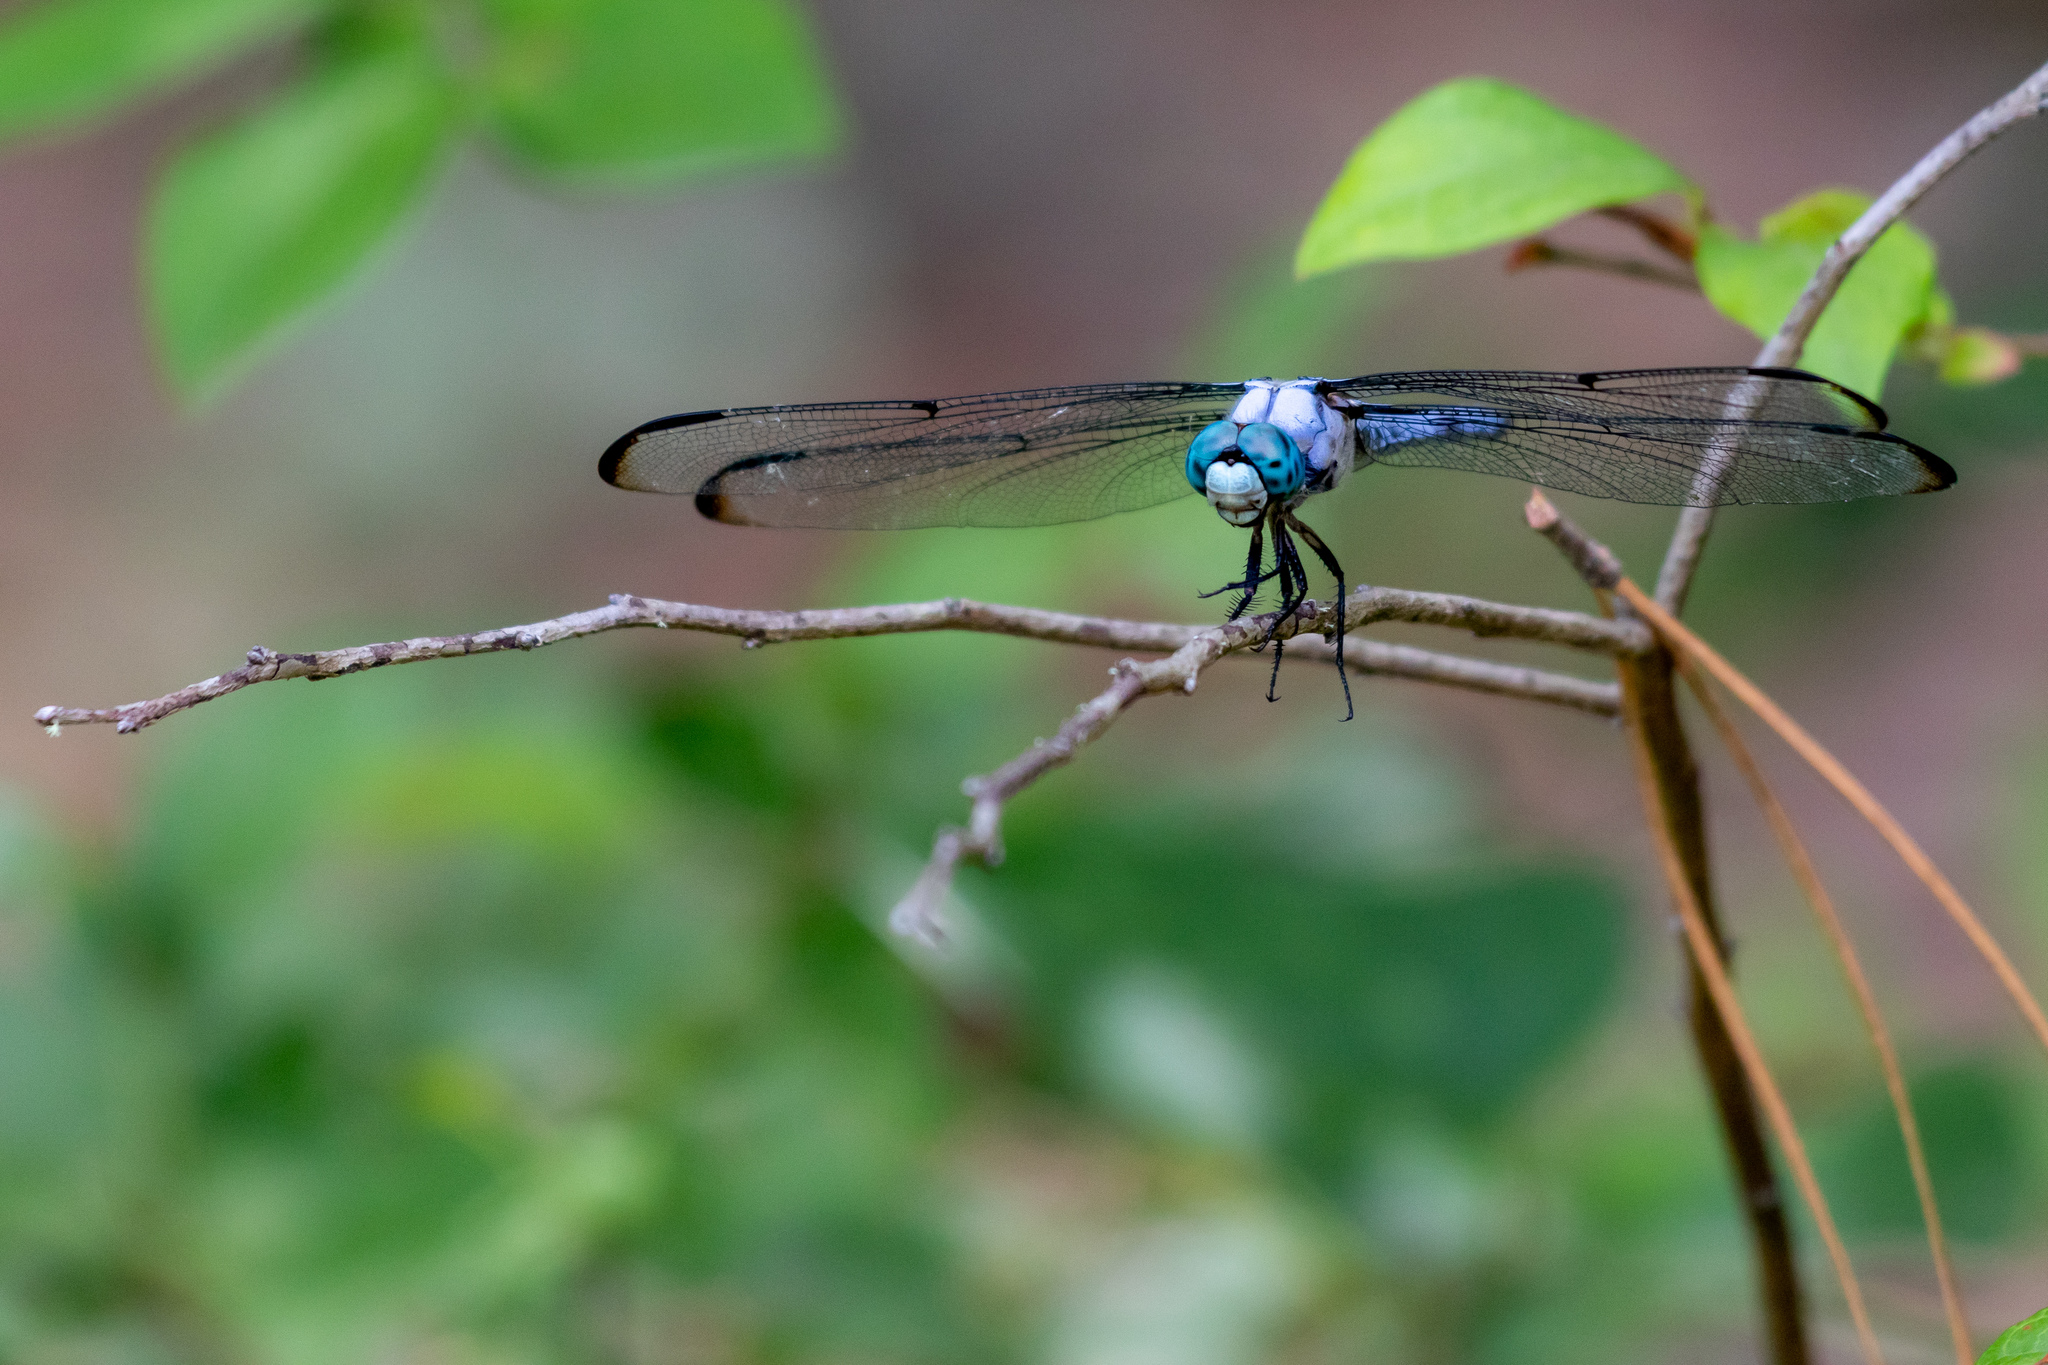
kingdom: Animalia
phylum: Arthropoda
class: Insecta
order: Odonata
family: Libellulidae
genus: Libellula
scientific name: Libellula vibrans
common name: Great blue skimmer
